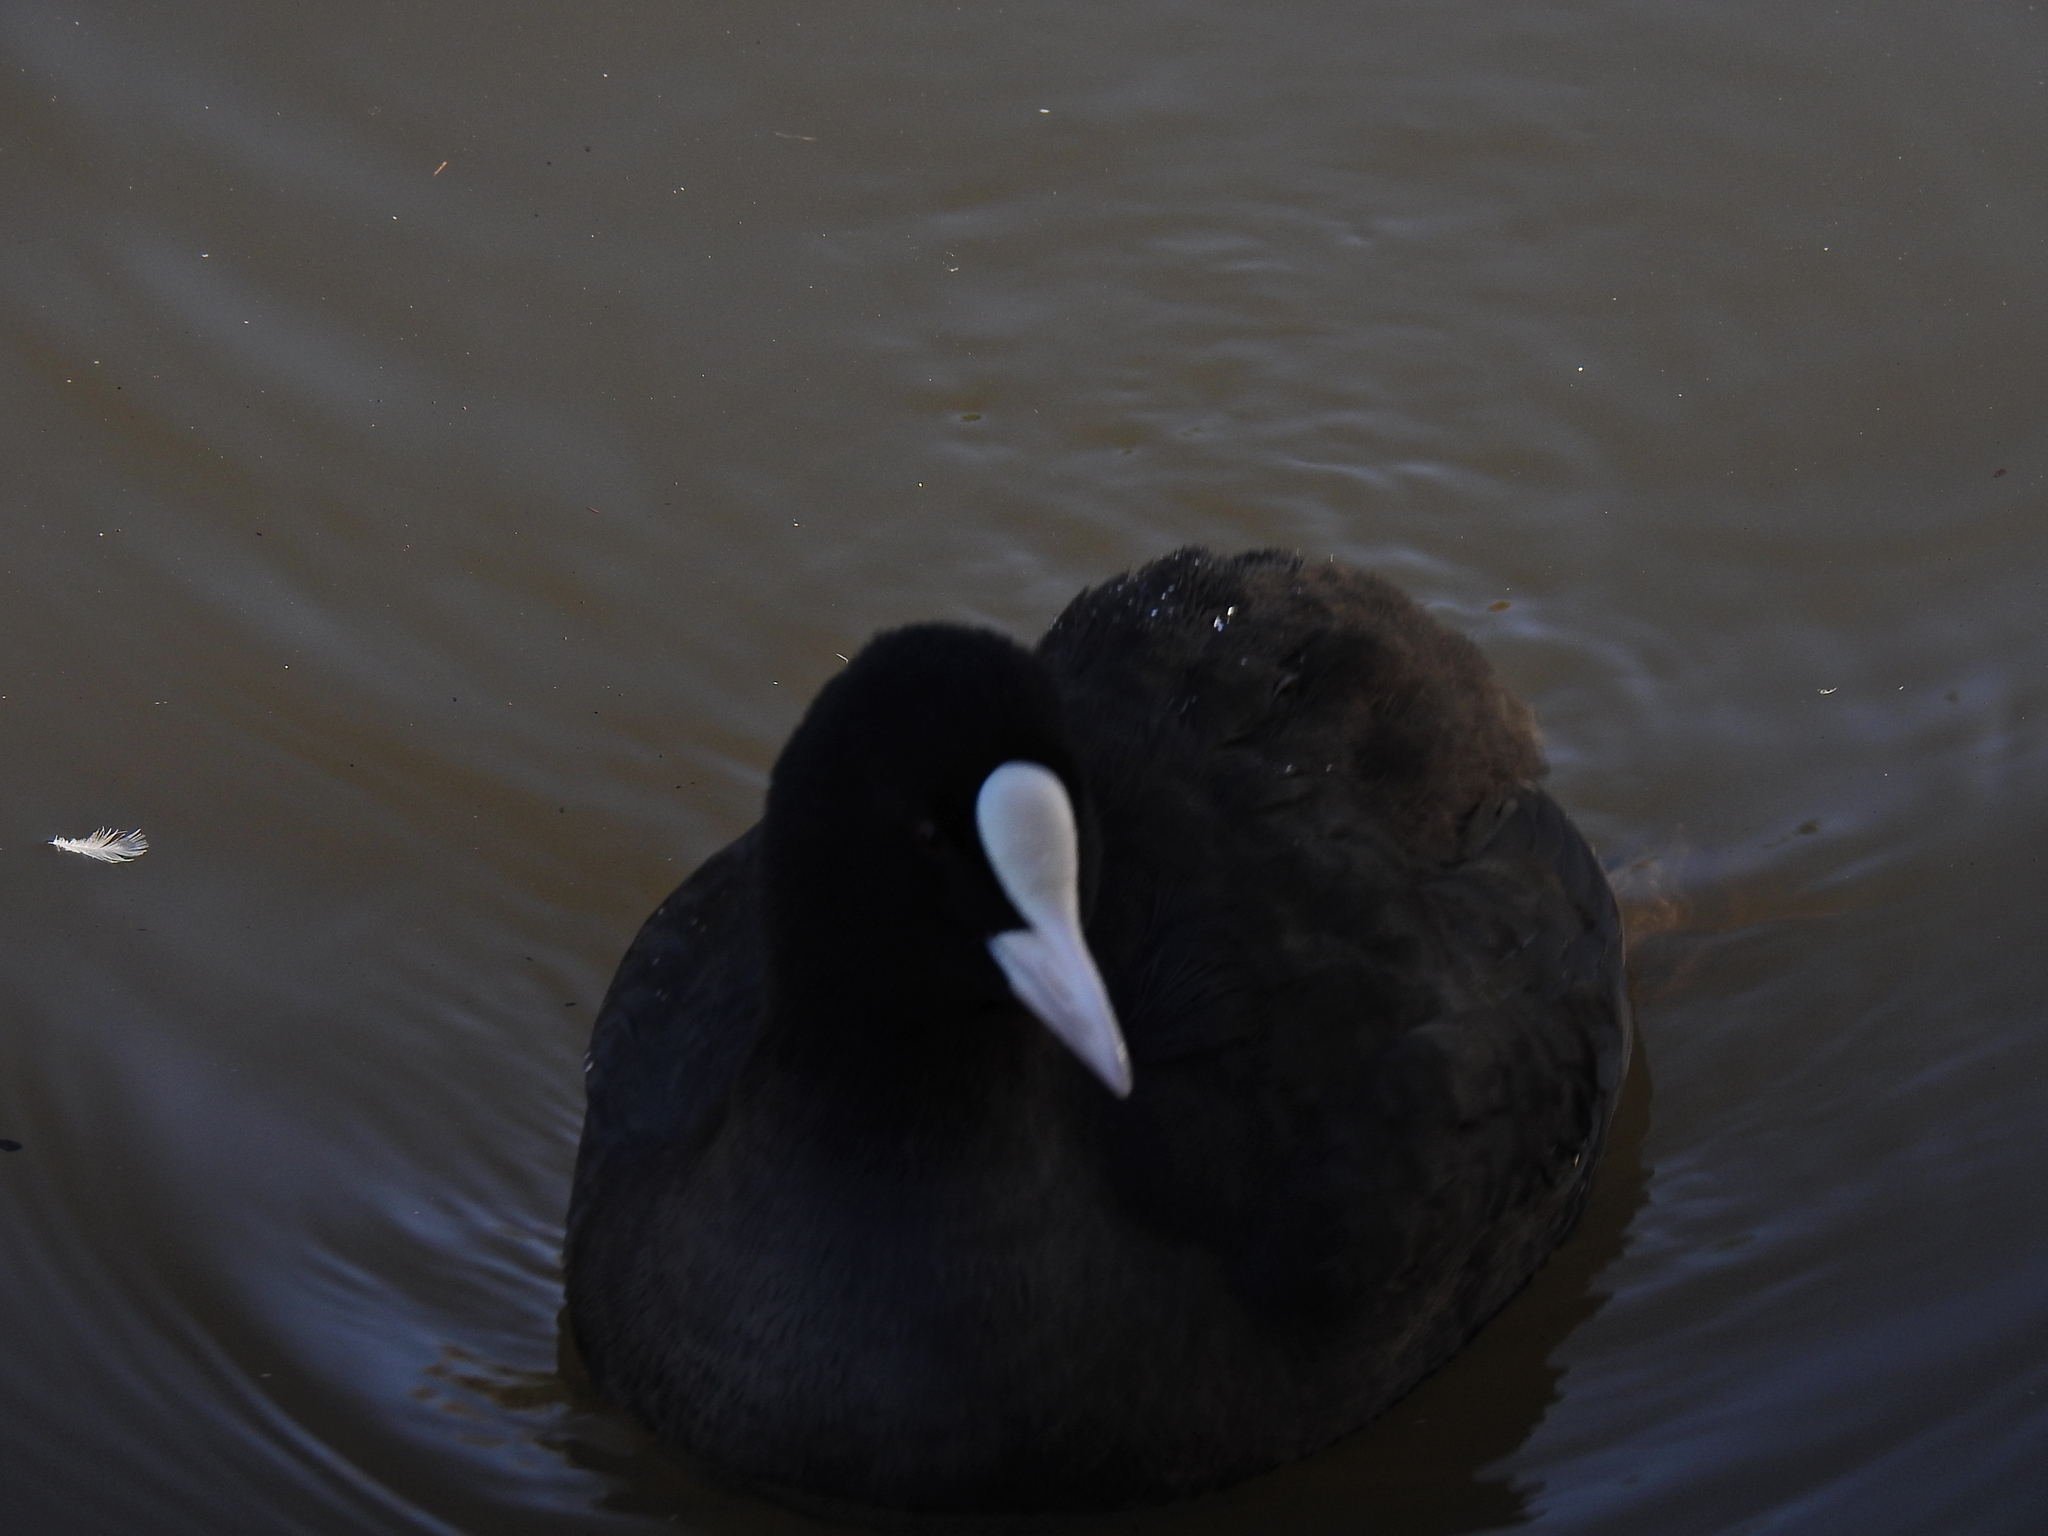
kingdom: Animalia
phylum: Chordata
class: Aves
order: Gruiformes
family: Rallidae
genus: Fulica
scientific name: Fulica atra
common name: Eurasian coot
